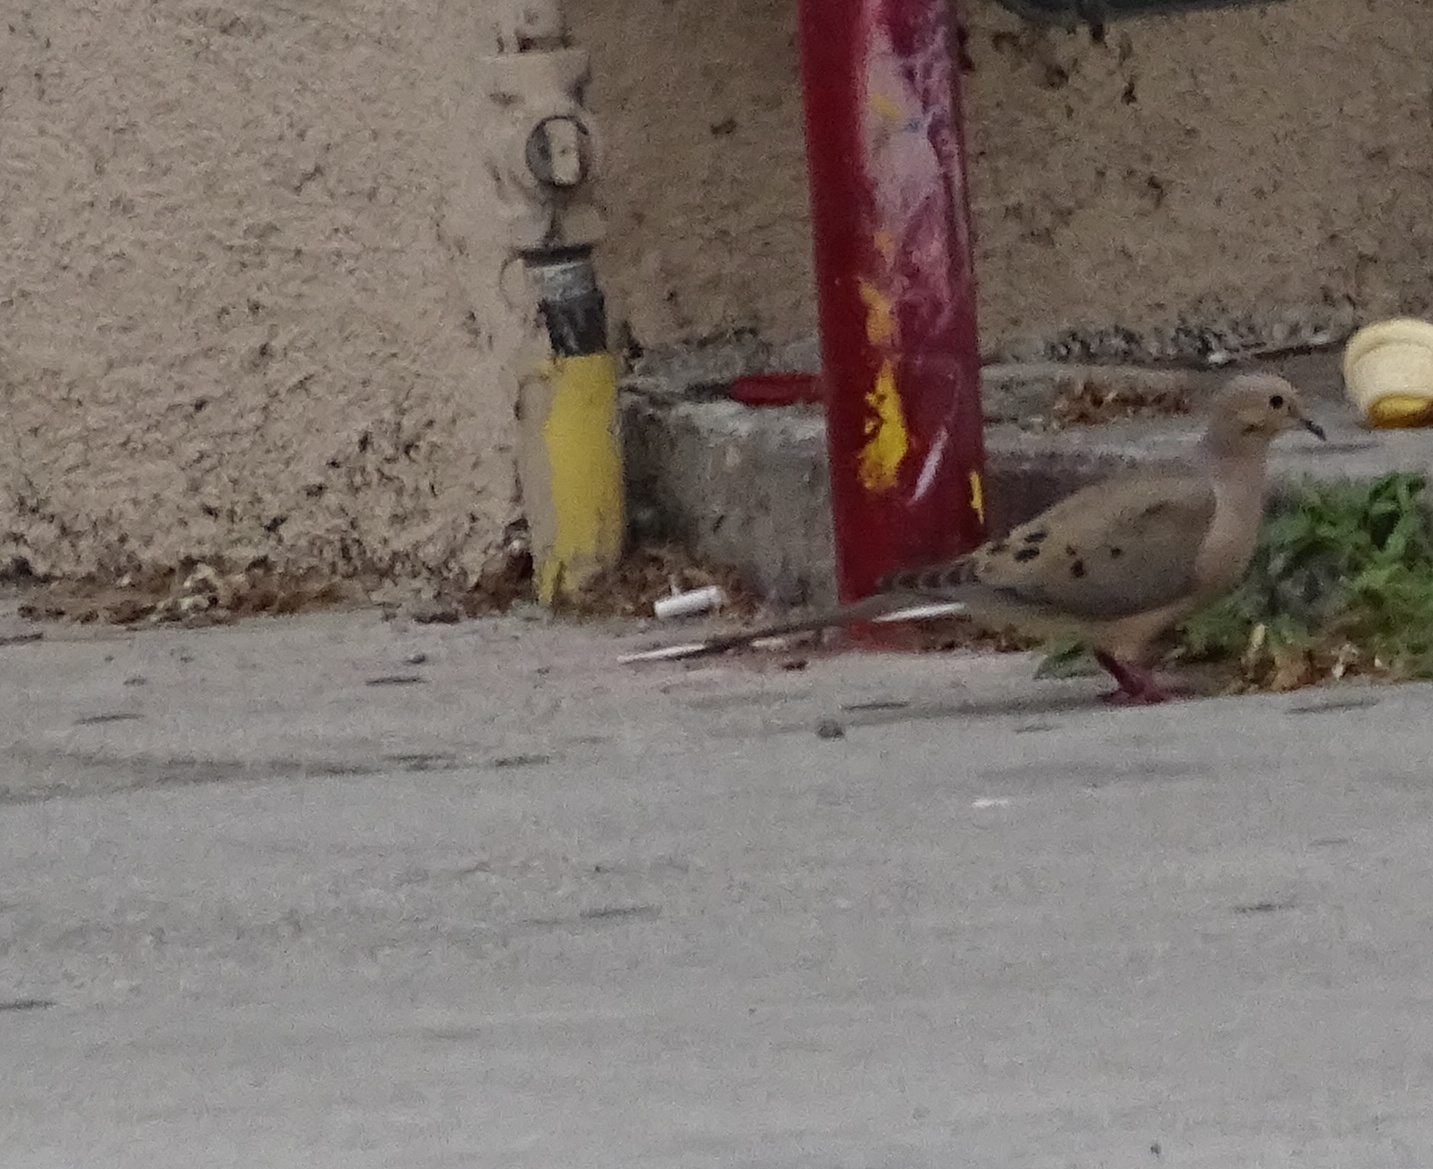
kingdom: Animalia
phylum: Chordata
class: Aves
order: Columbiformes
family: Columbidae
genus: Zenaida
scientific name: Zenaida macroura
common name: Mourning dove
